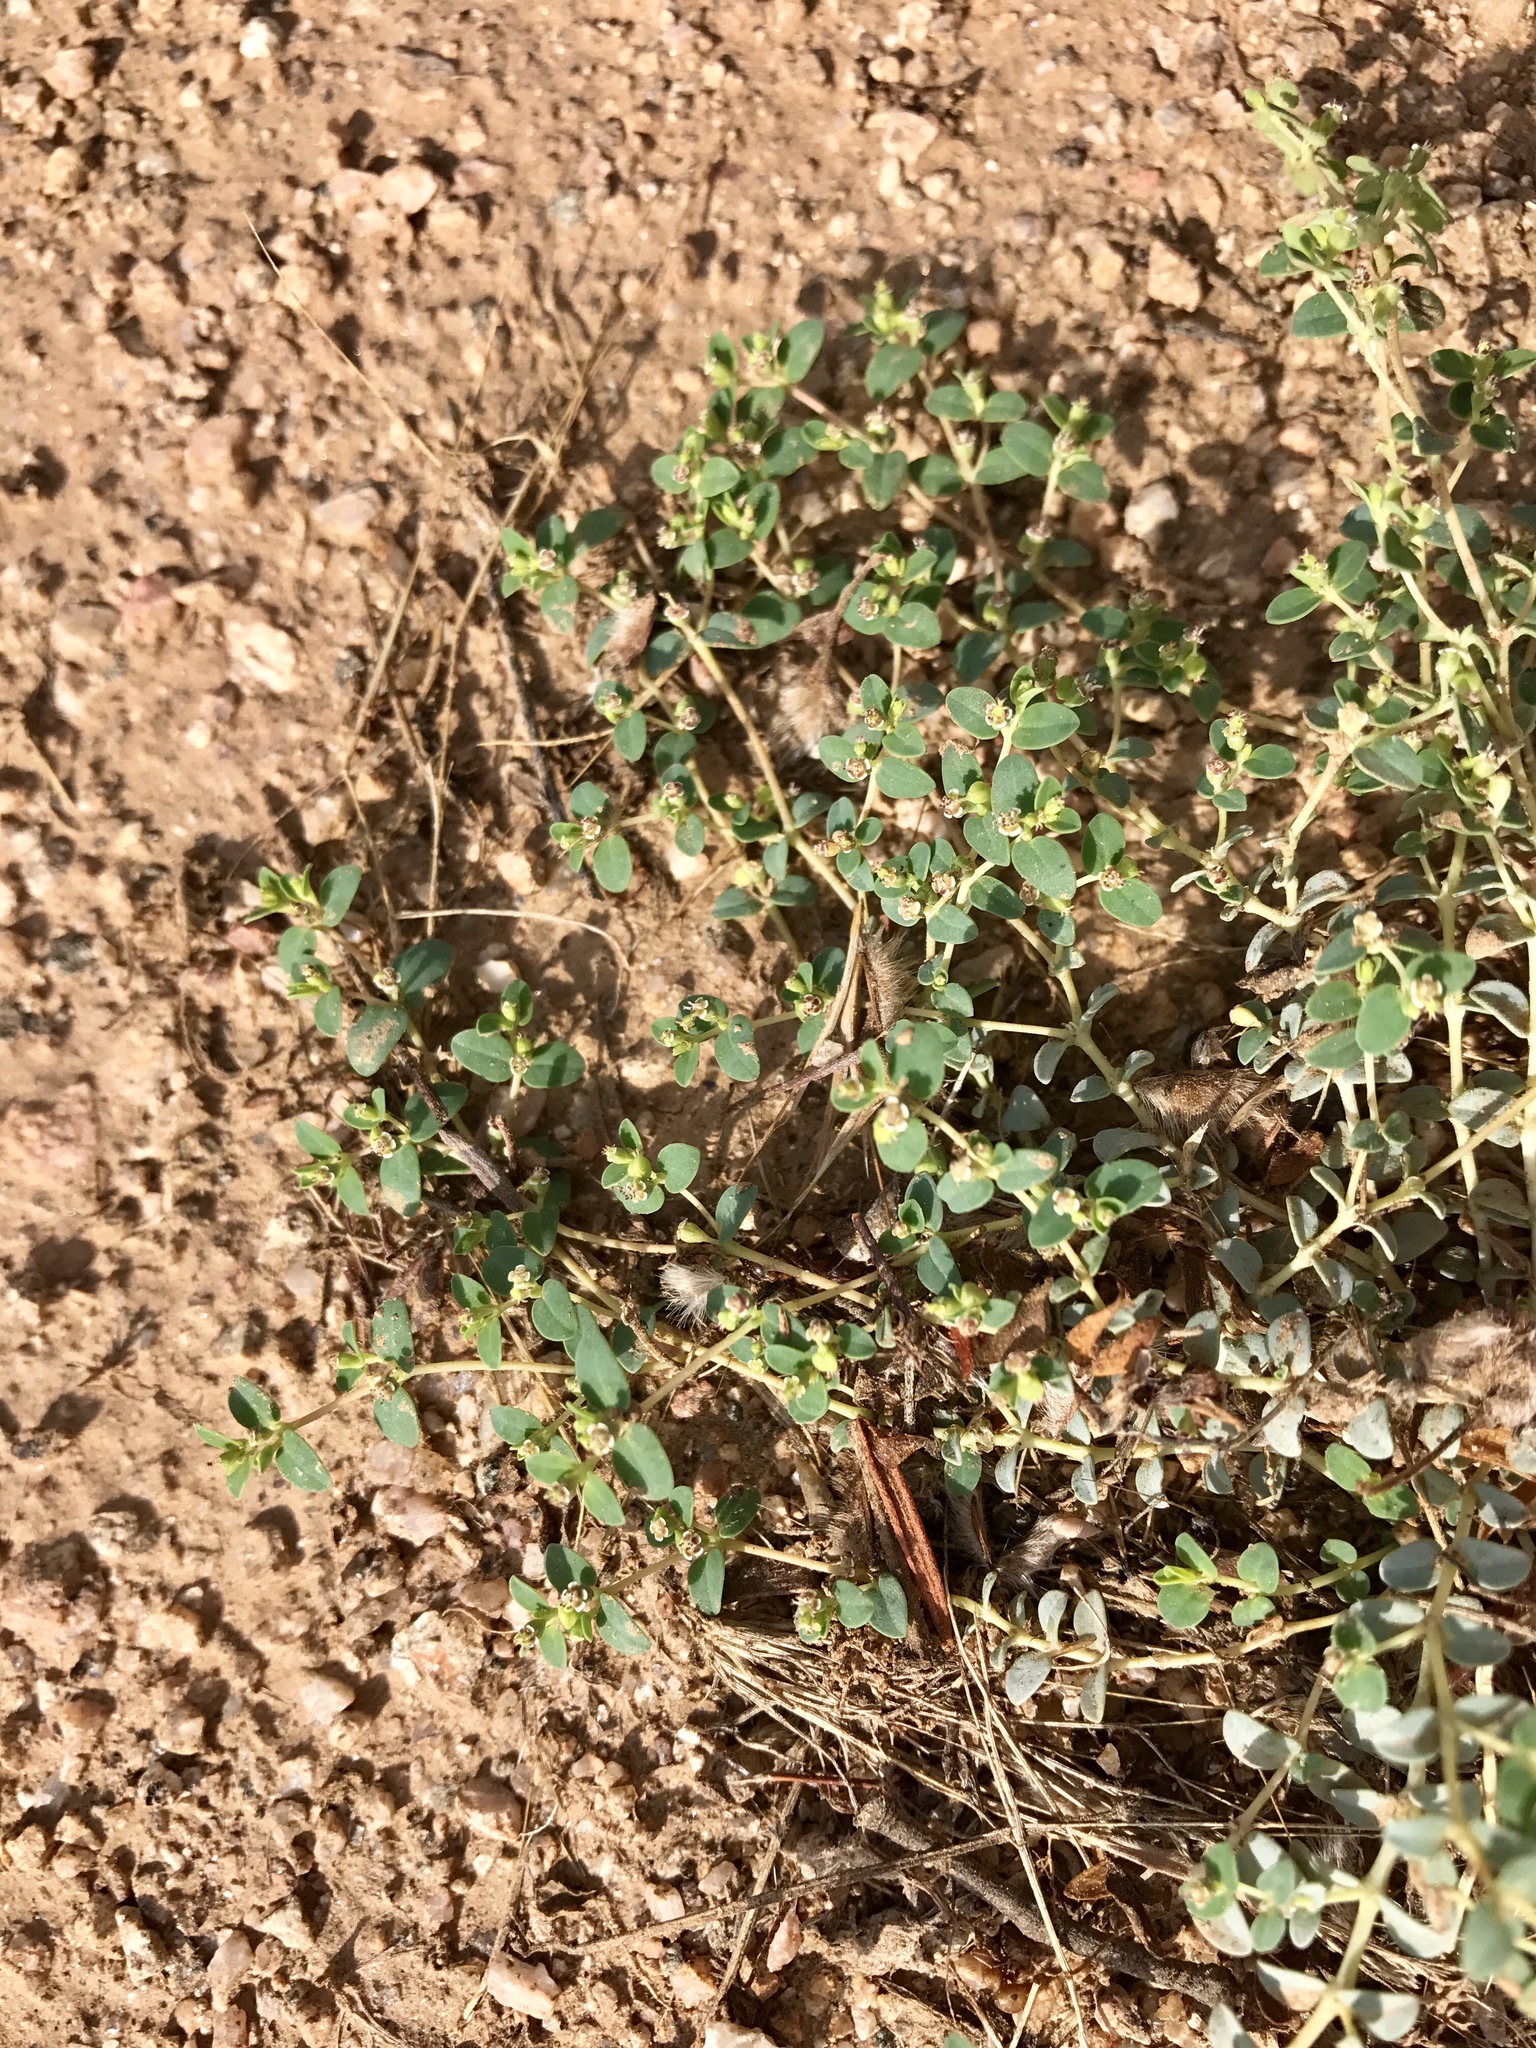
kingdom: Plantae
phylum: Tracheophyta
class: Magnoliopsida
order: Malpighiales
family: Euphorbiaceae
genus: Euphorbia
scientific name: Euphorbia polycarpa
